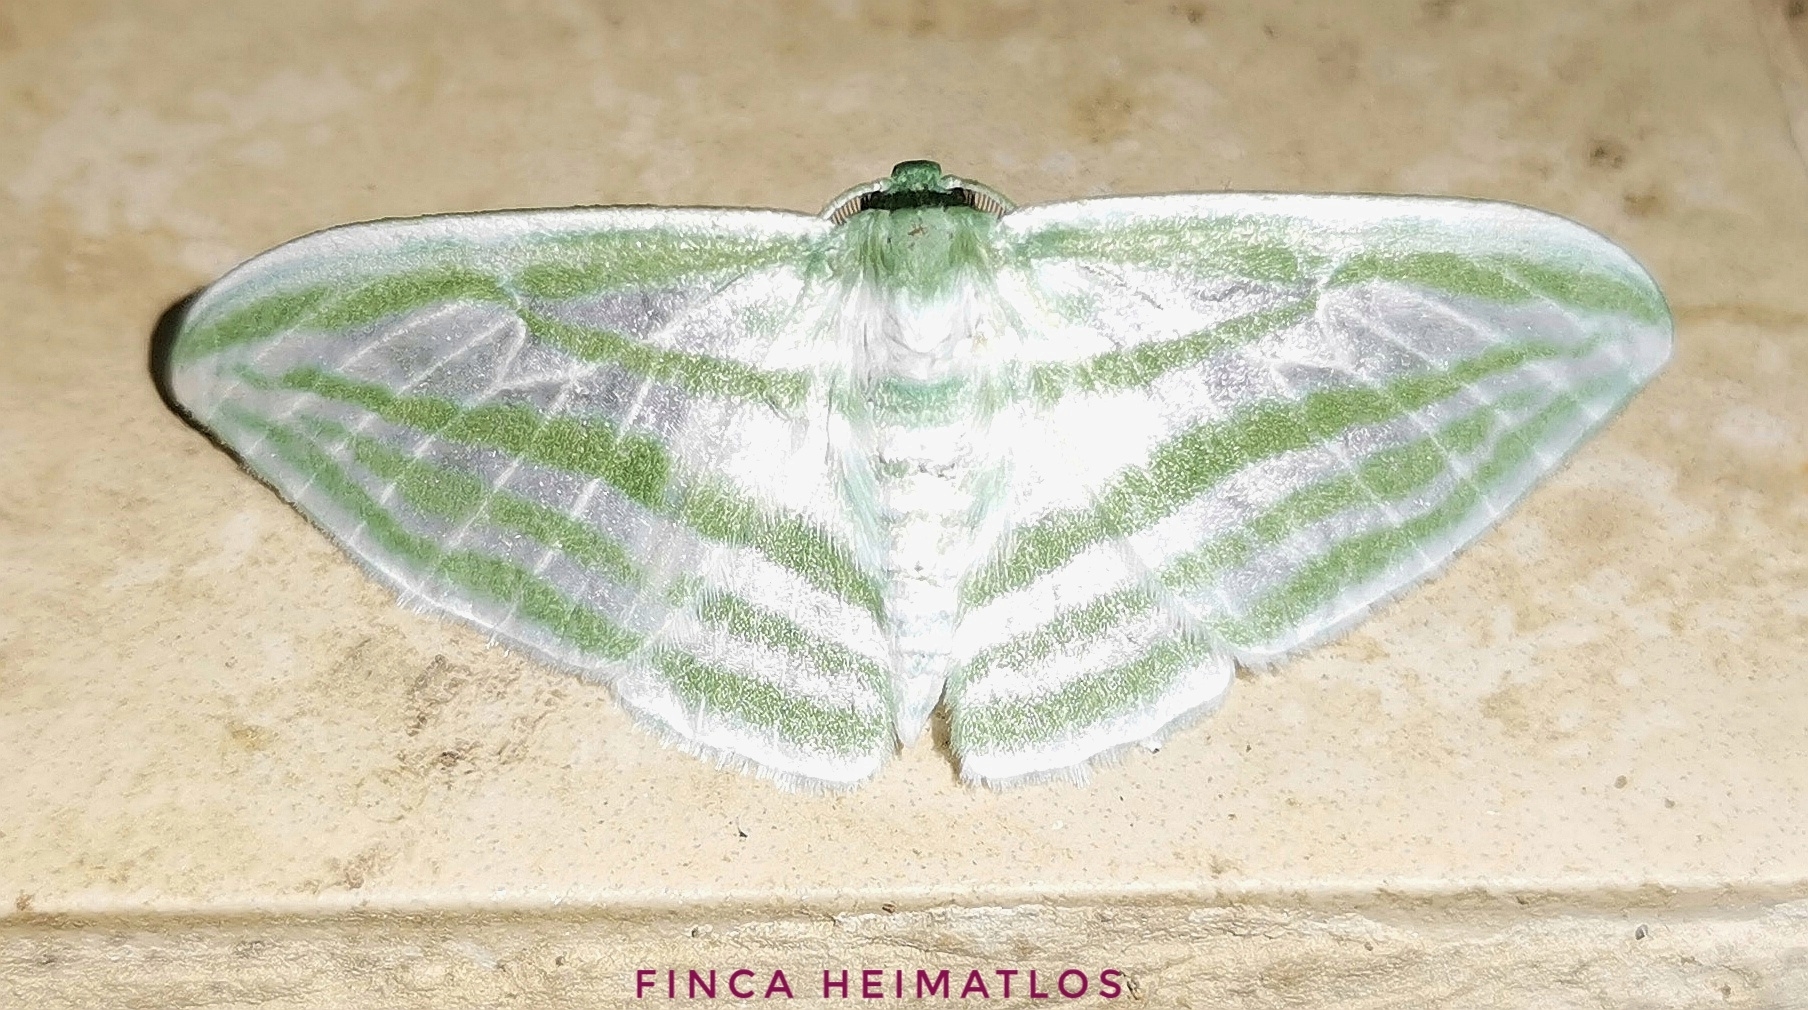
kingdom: Animalia
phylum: Arthropoda
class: Insecta
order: Lepidoptera
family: Geometridae
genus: Dyspteris
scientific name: Dyspteris gigantea
